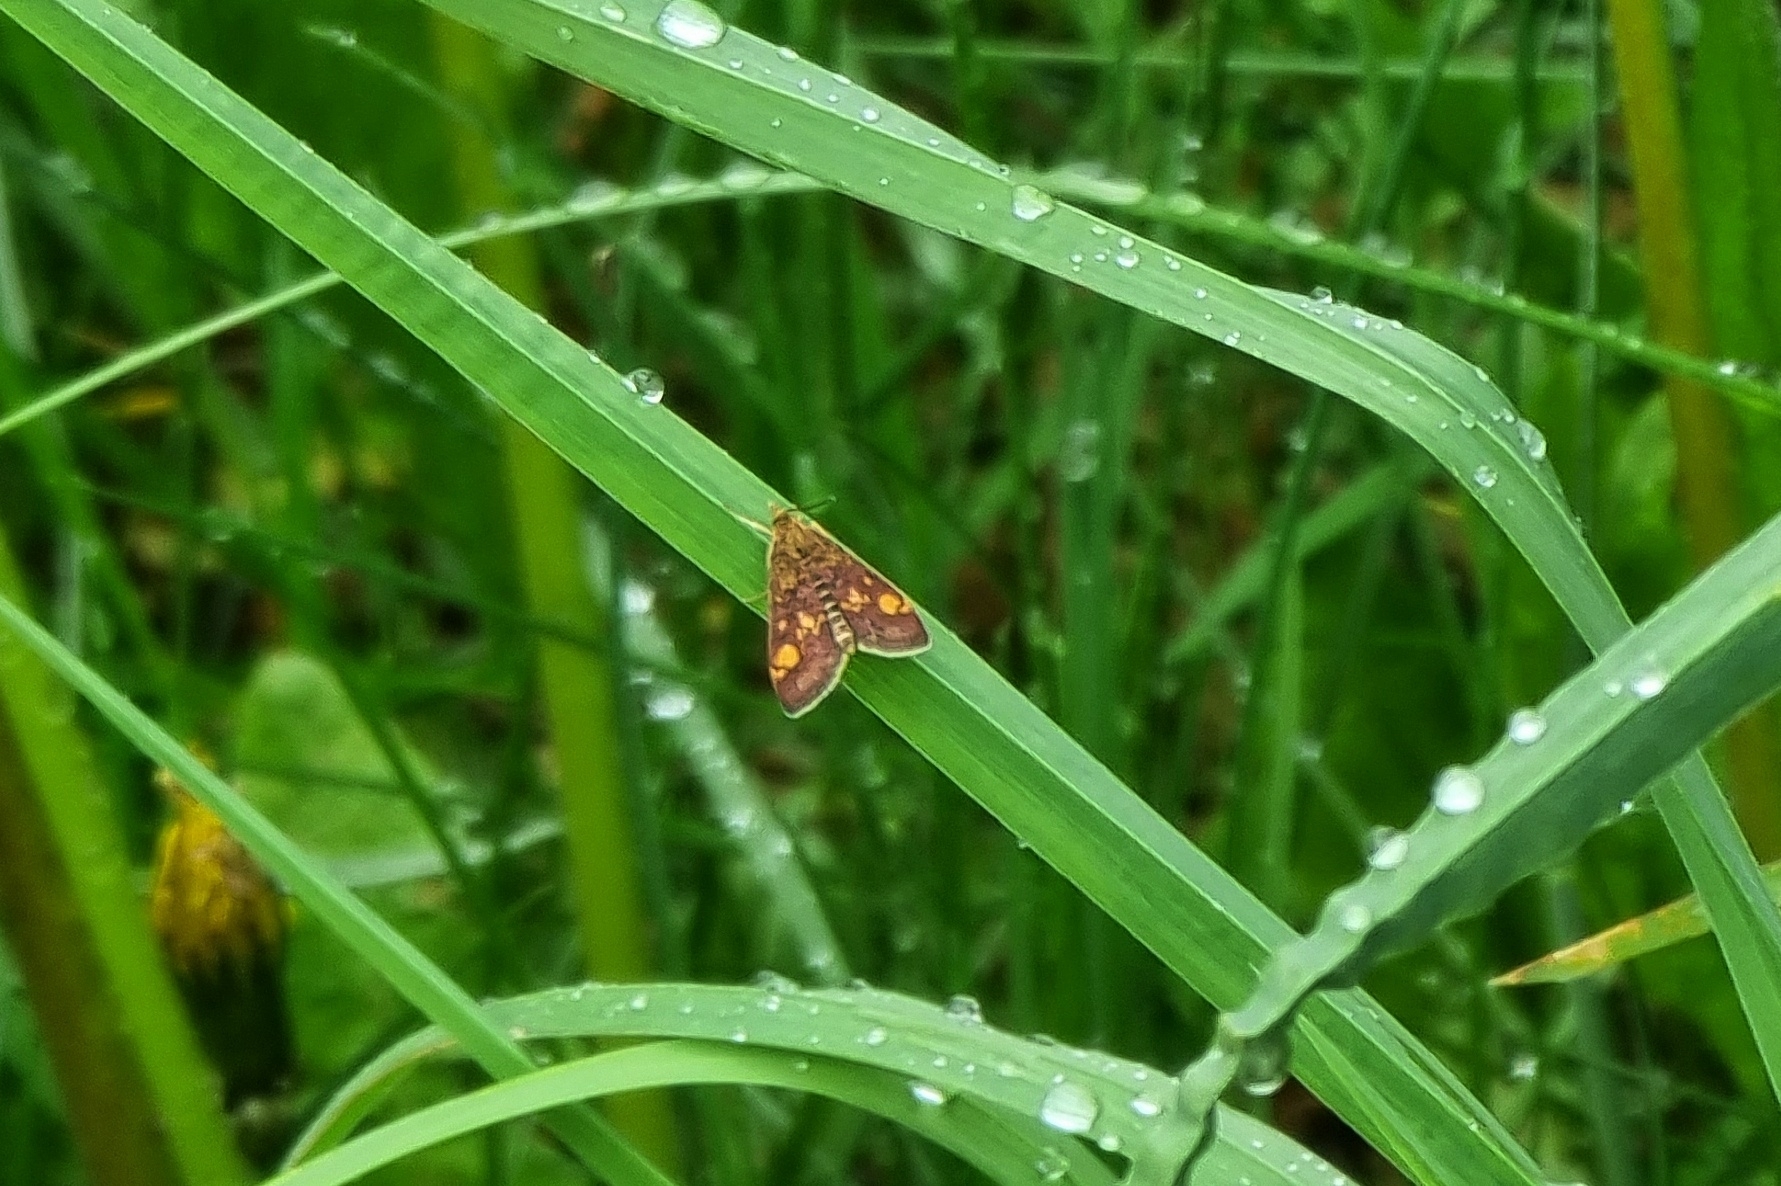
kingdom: Animalia
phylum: Arthropoda
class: Insecta
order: Lepidoptera
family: Crambidae
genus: Pyrausta
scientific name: Pyrausta aurata
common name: Small purple & gold
